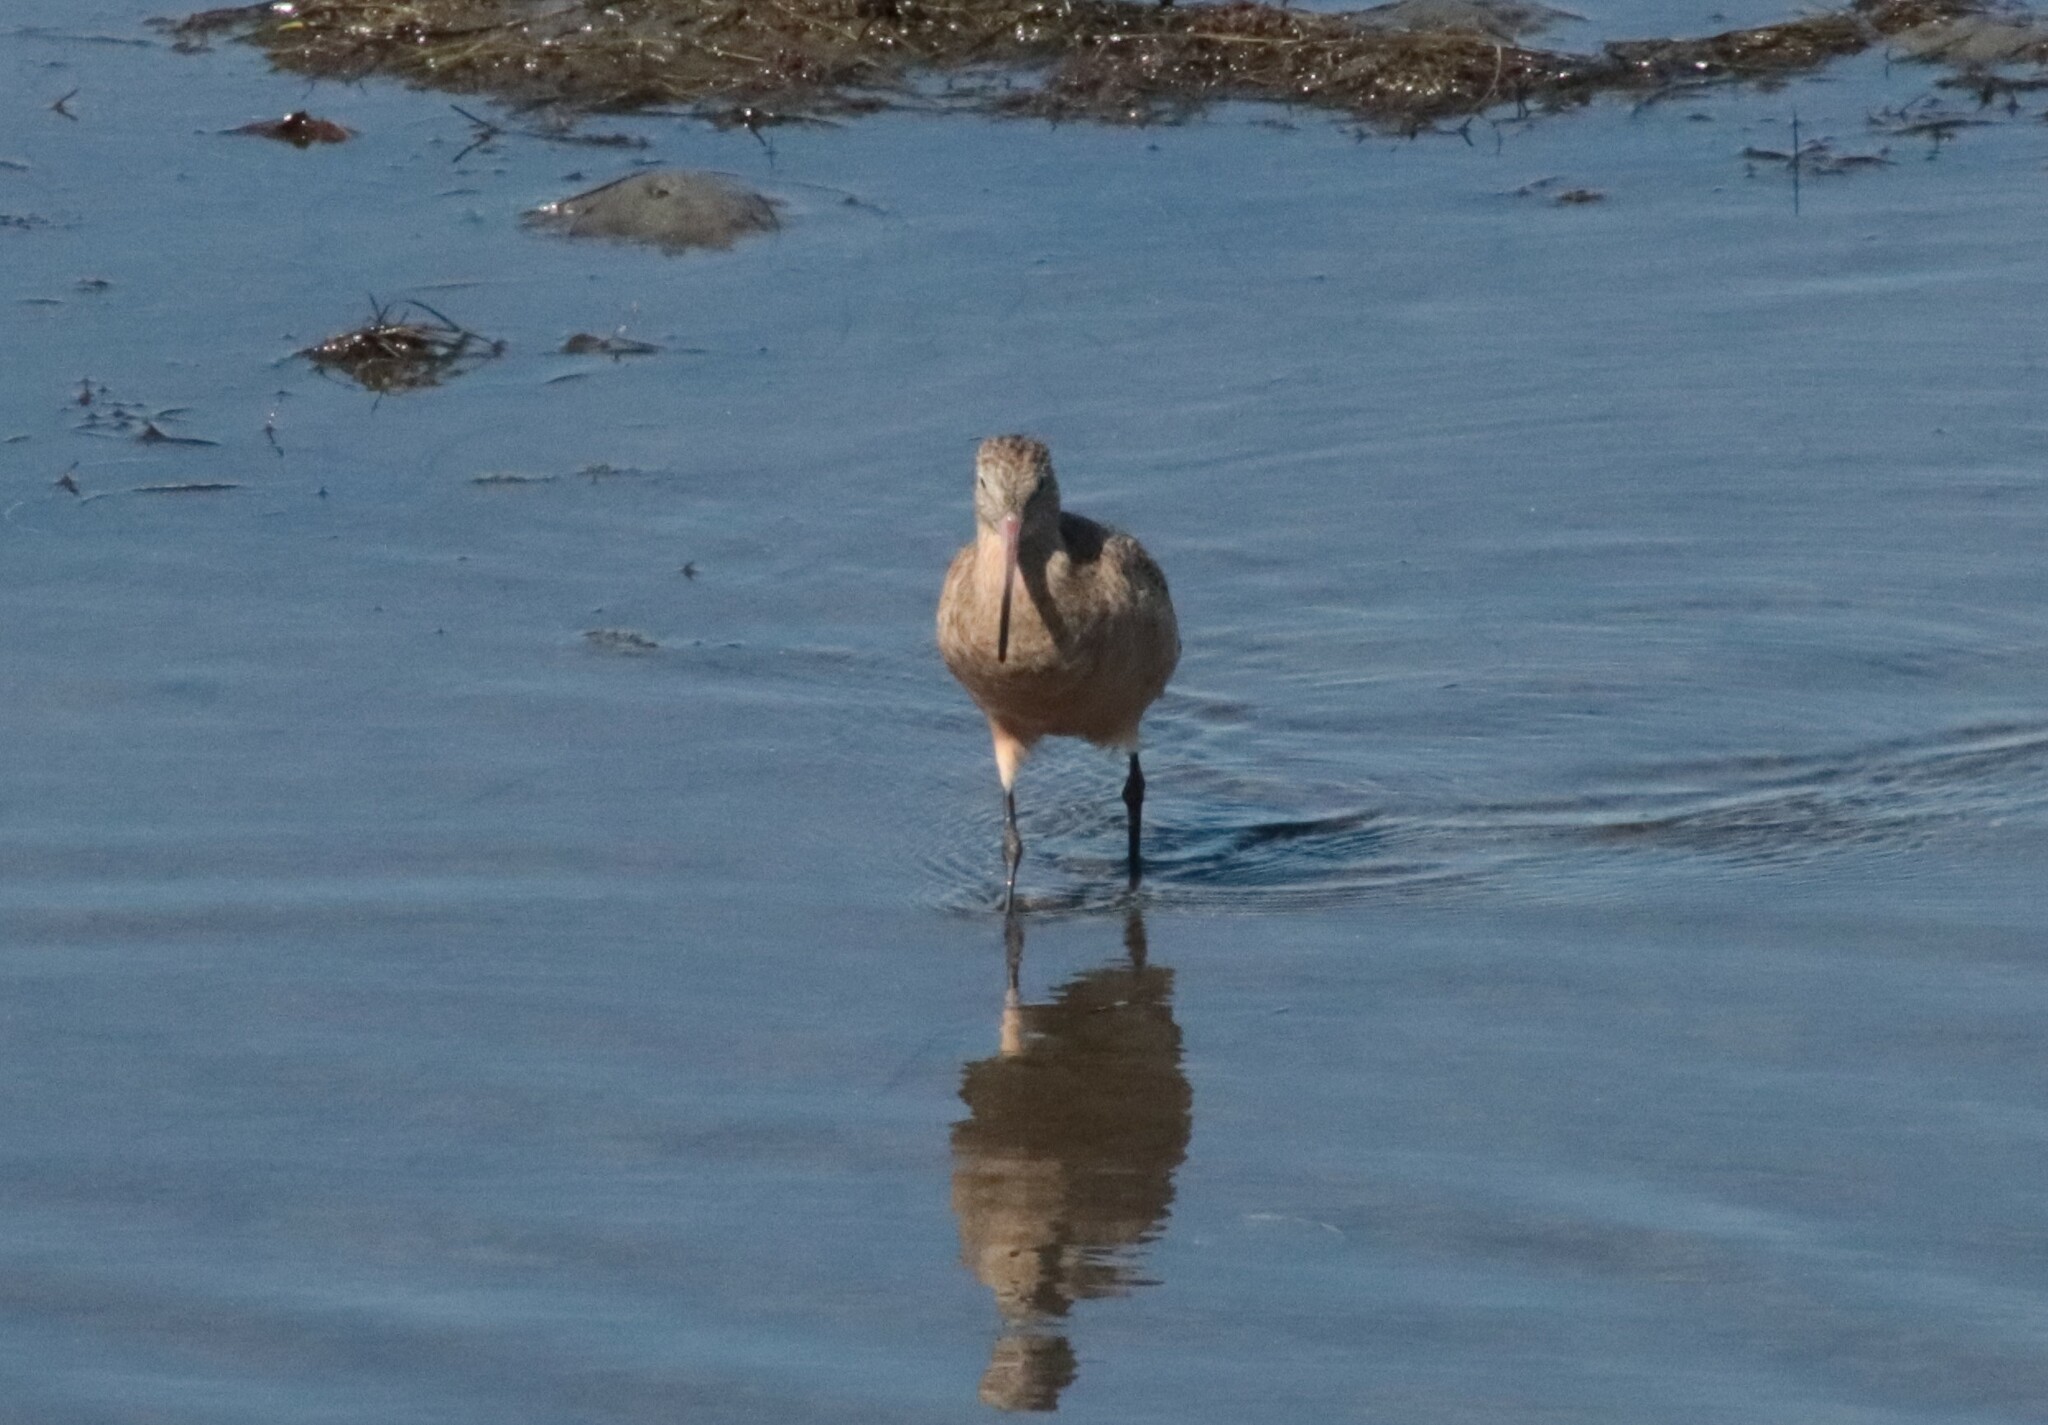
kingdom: Animalia
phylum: Chordata
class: Aves
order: Charadriiformes
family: Scolopacidae
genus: Limosa
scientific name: Limosa fedoa
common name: Marbled godwit
